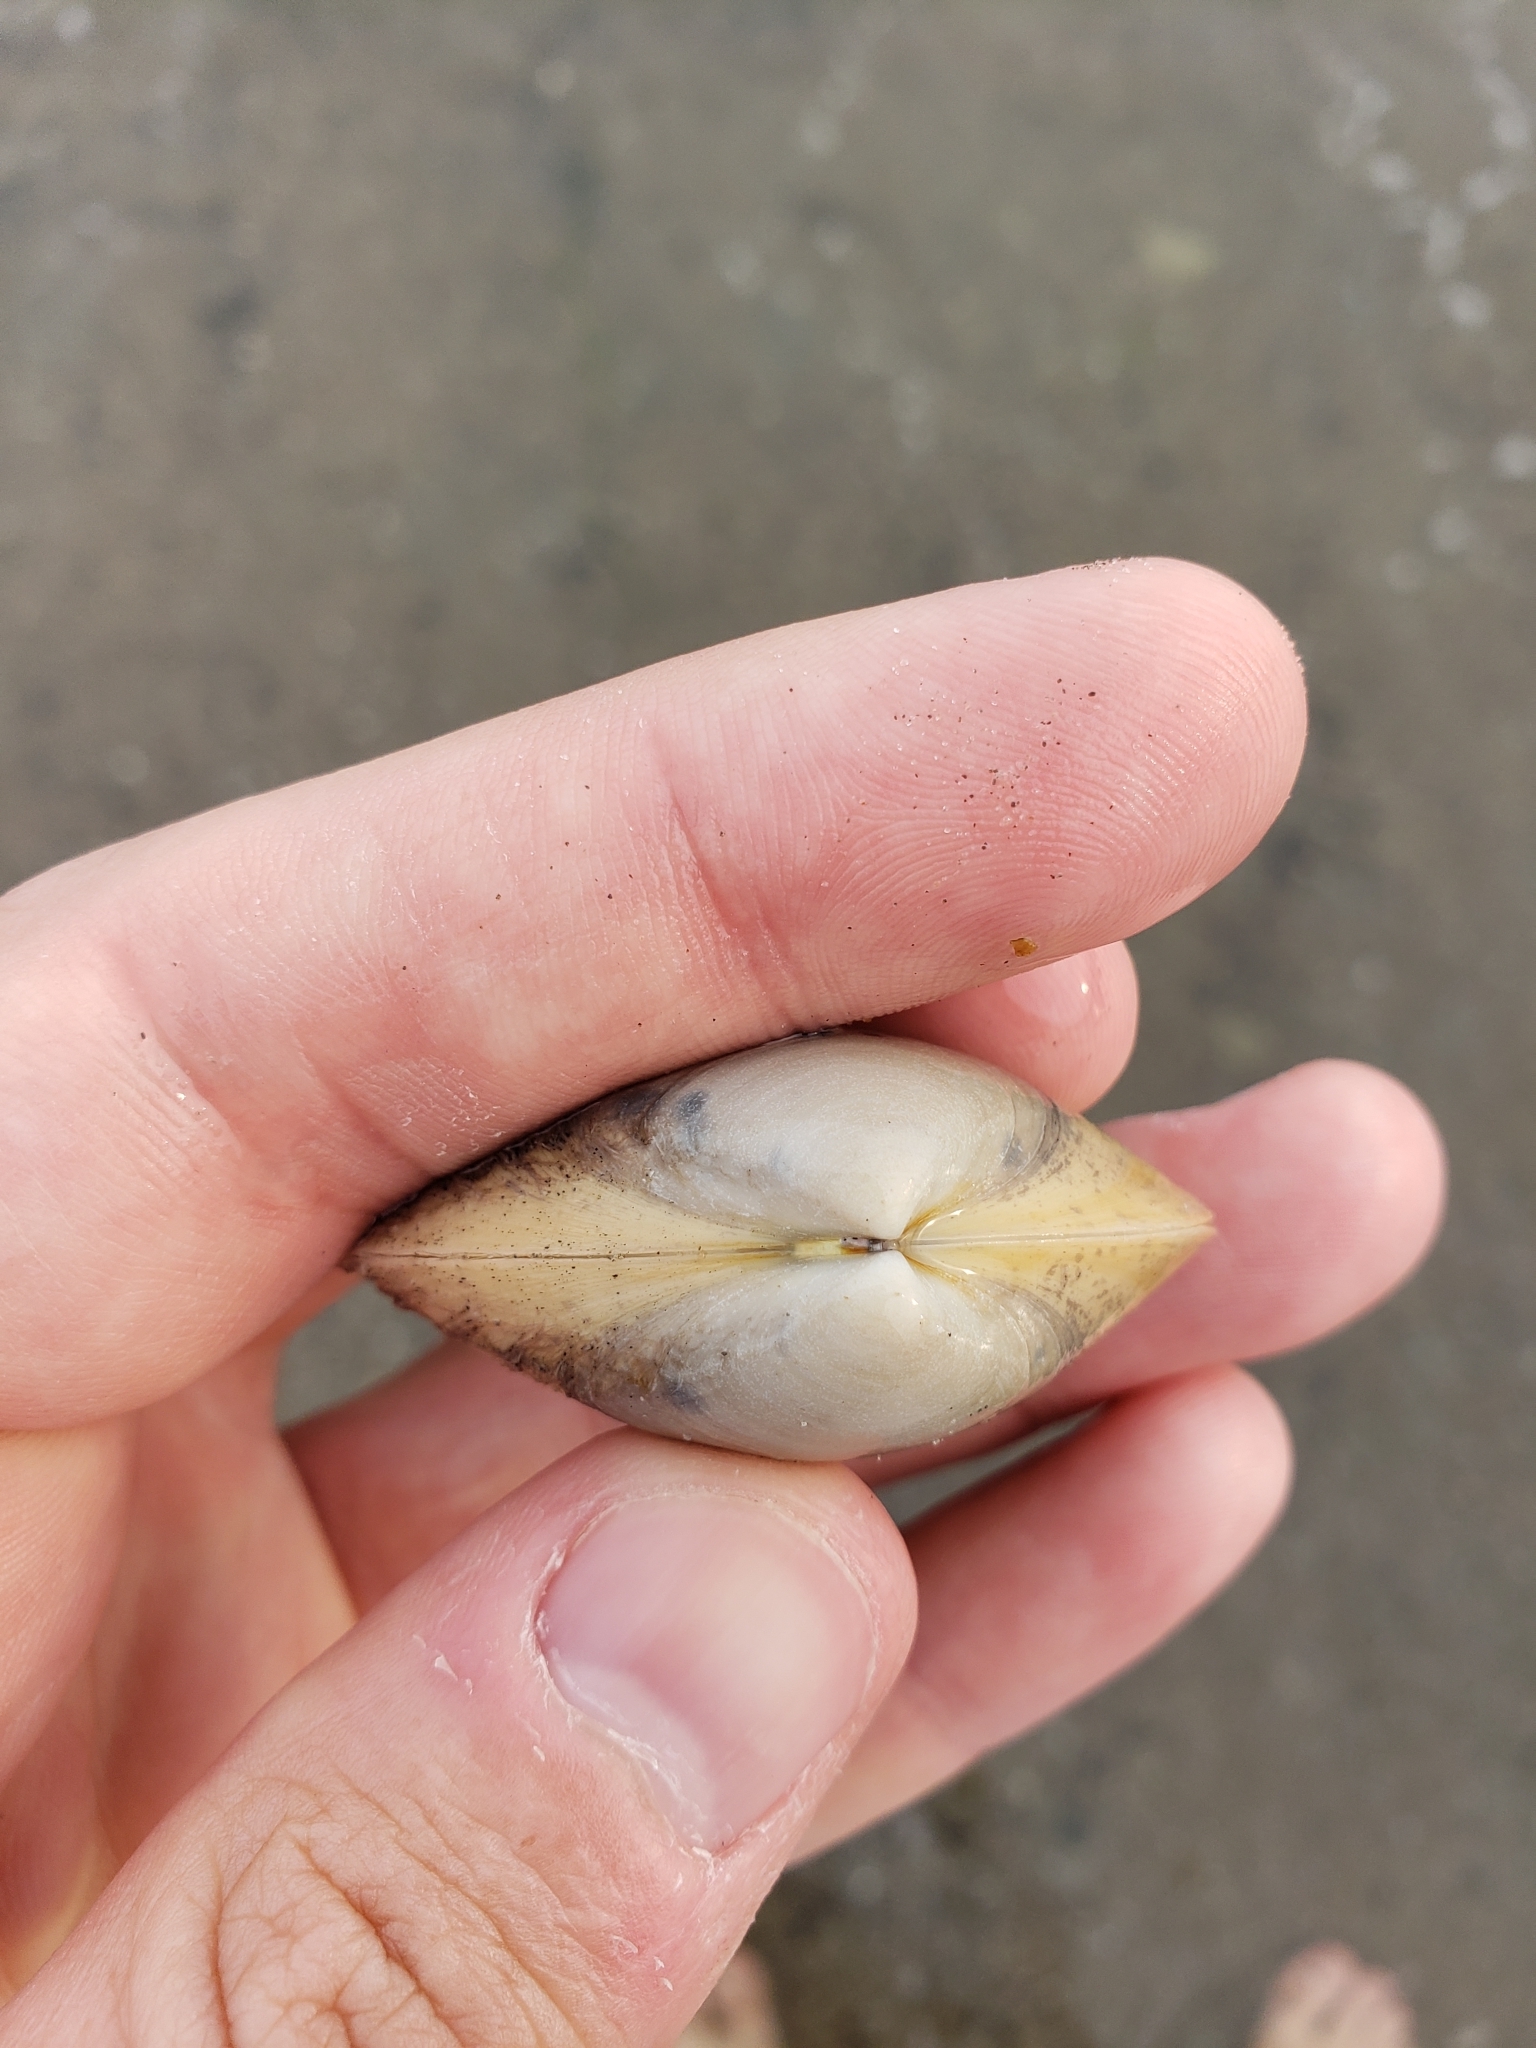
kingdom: Animalia
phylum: Mollusca
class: Bivalvia
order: Venerida
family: Mactridae
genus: Spisula
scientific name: Spisula solidissima
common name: Atlantic surf clam
